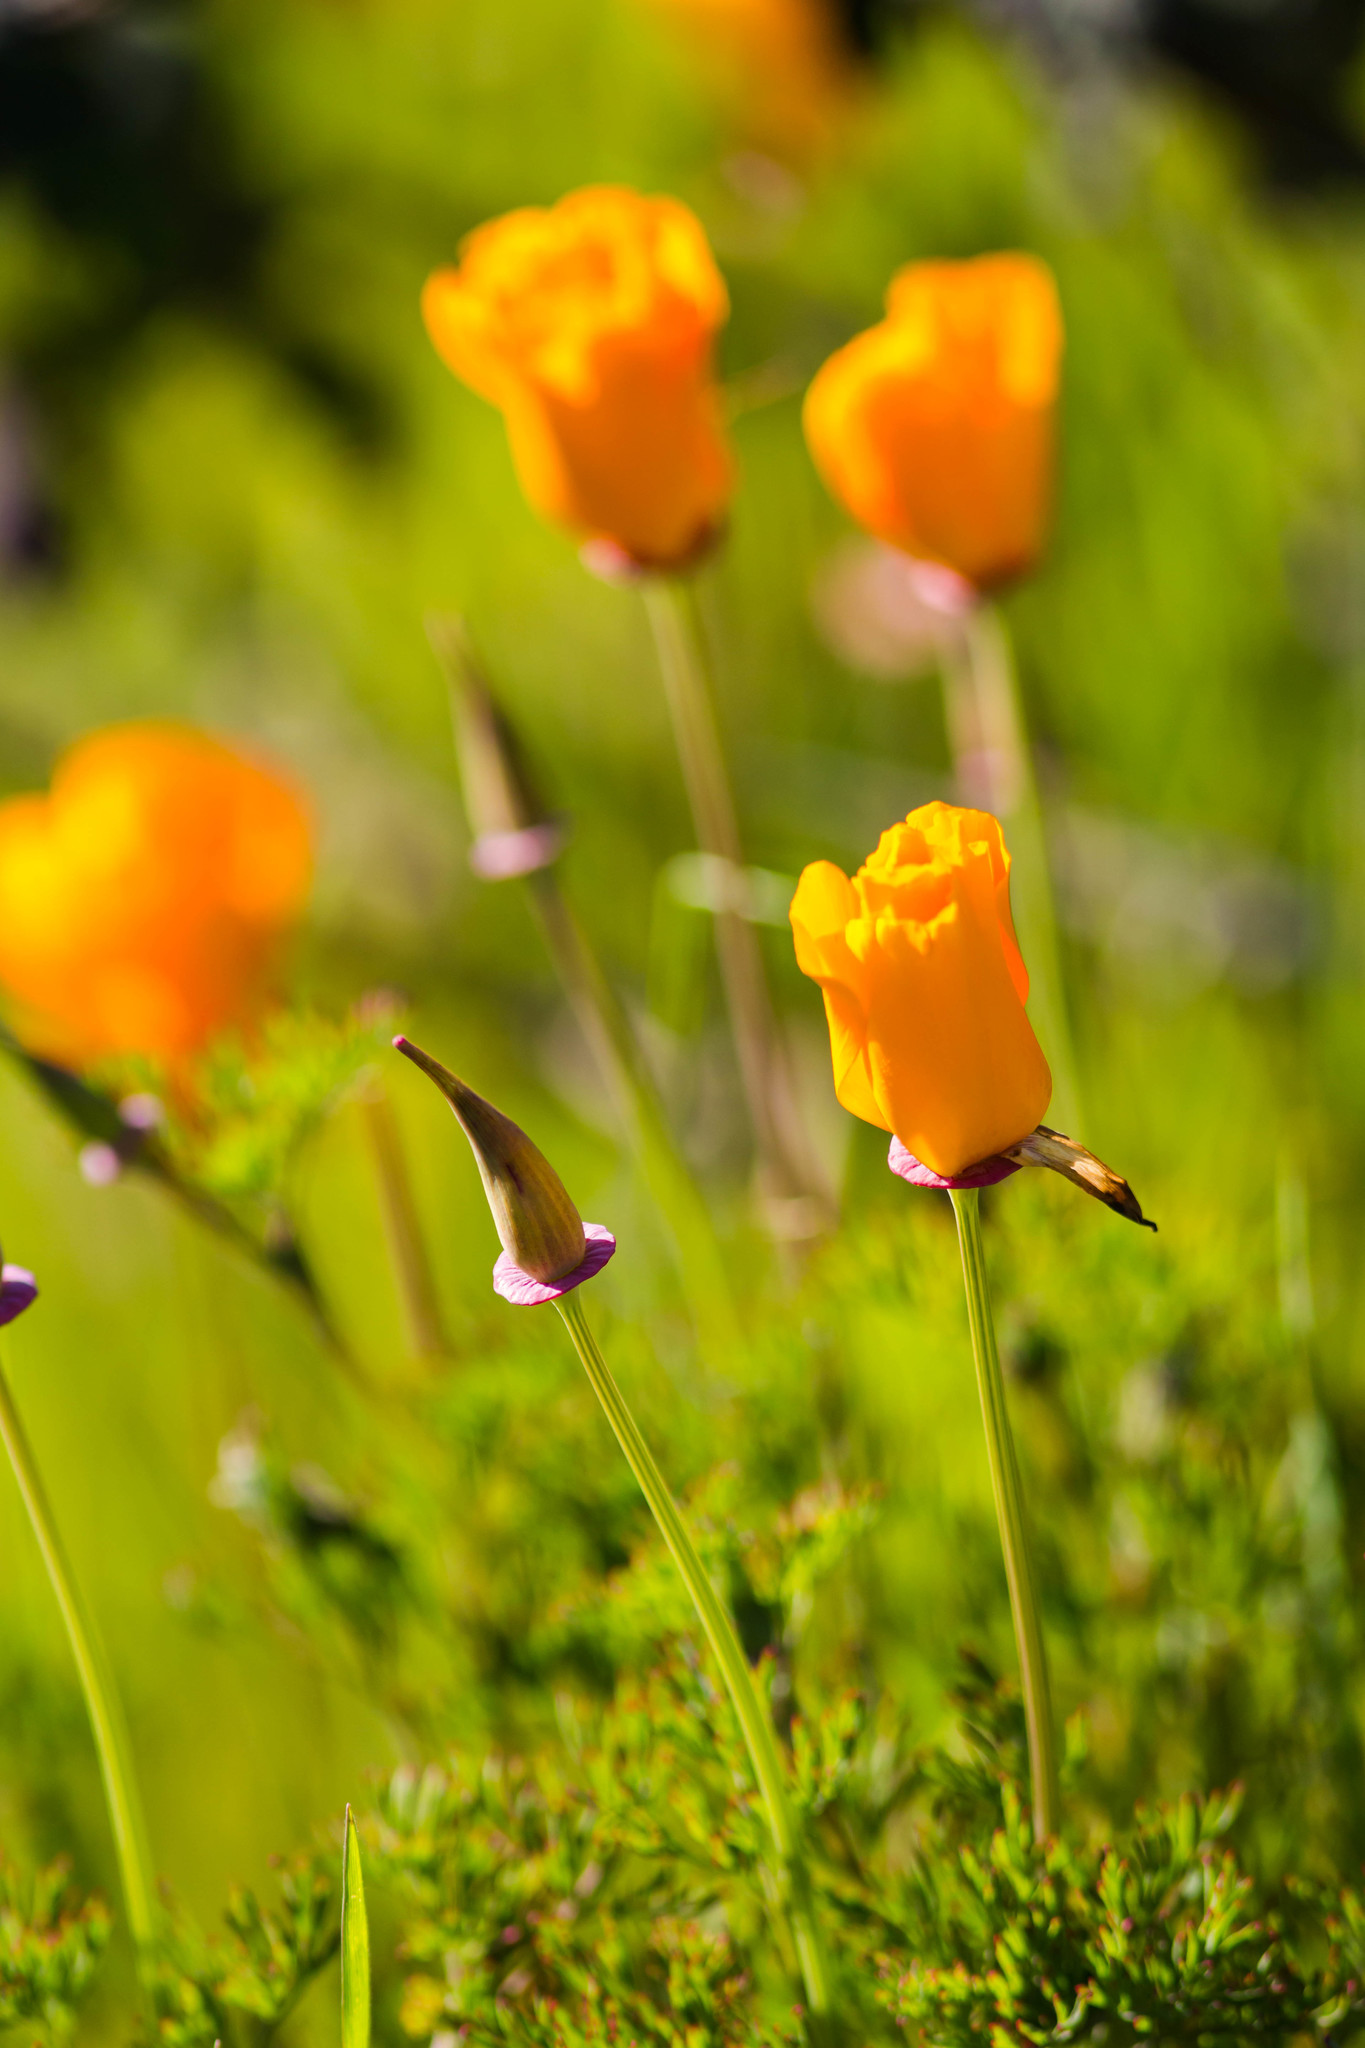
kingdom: Plantae
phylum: Tracheophyta
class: Magnoliopsida
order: Ranunculales
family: Papaveraceae
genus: Eschscholzia
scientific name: Eschscholzia californica
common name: California poppy
